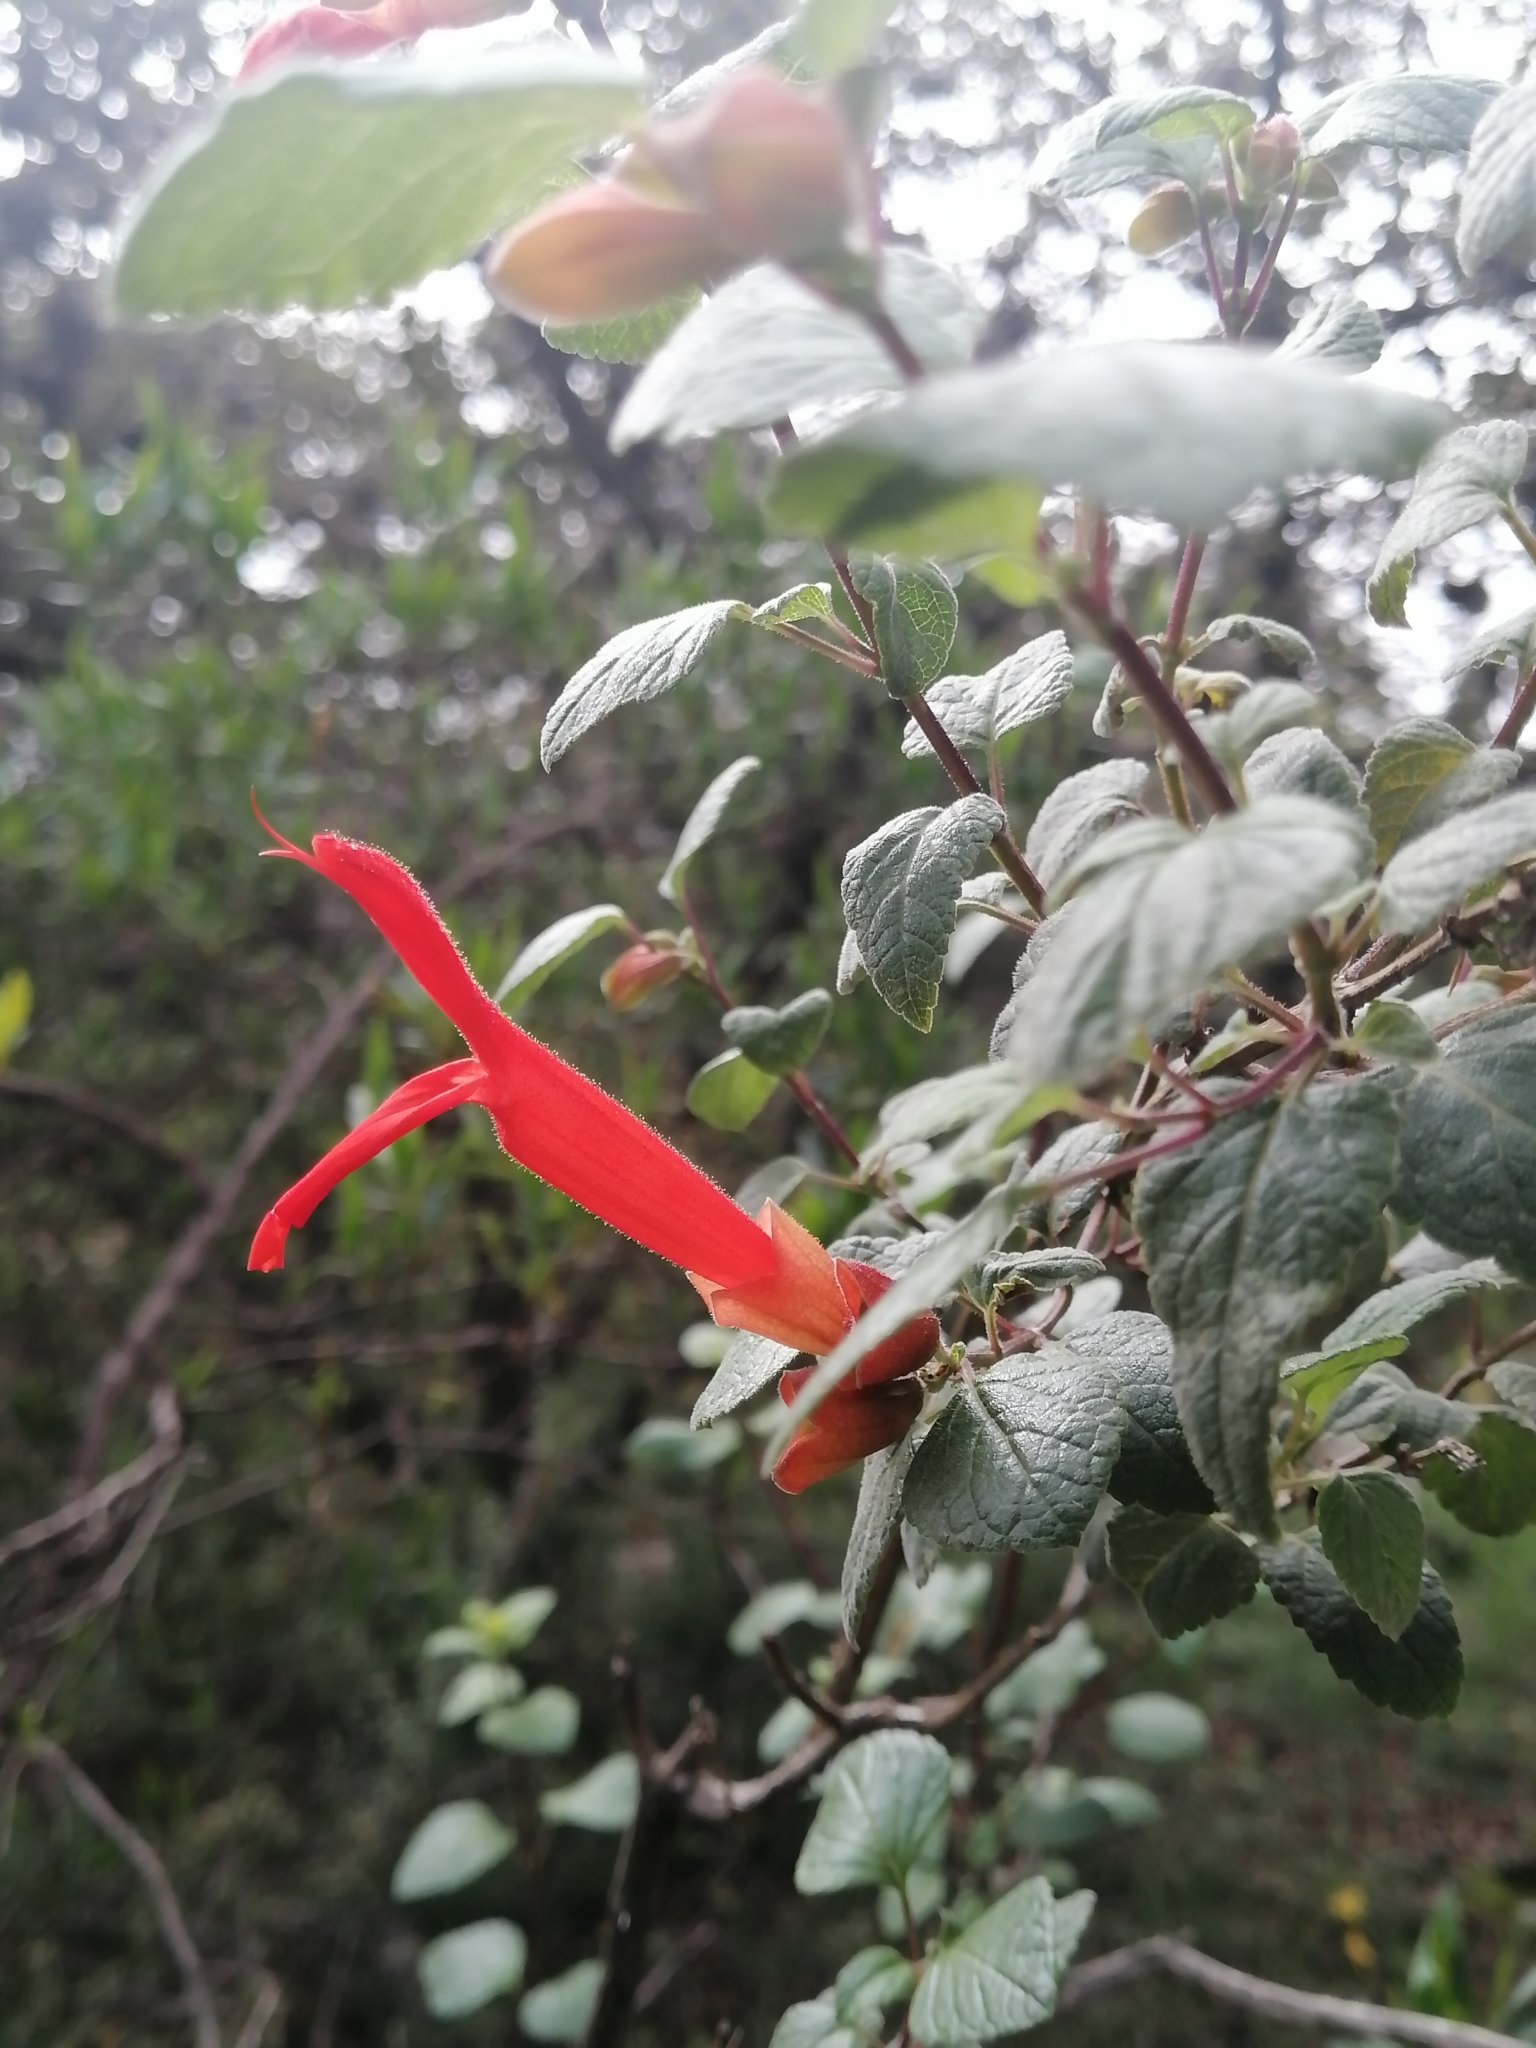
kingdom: Plantae
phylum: Tracheophyta
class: Magnoliopsida
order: Lamiales
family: Lamiaceae
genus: Salvia
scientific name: Salvia regla
